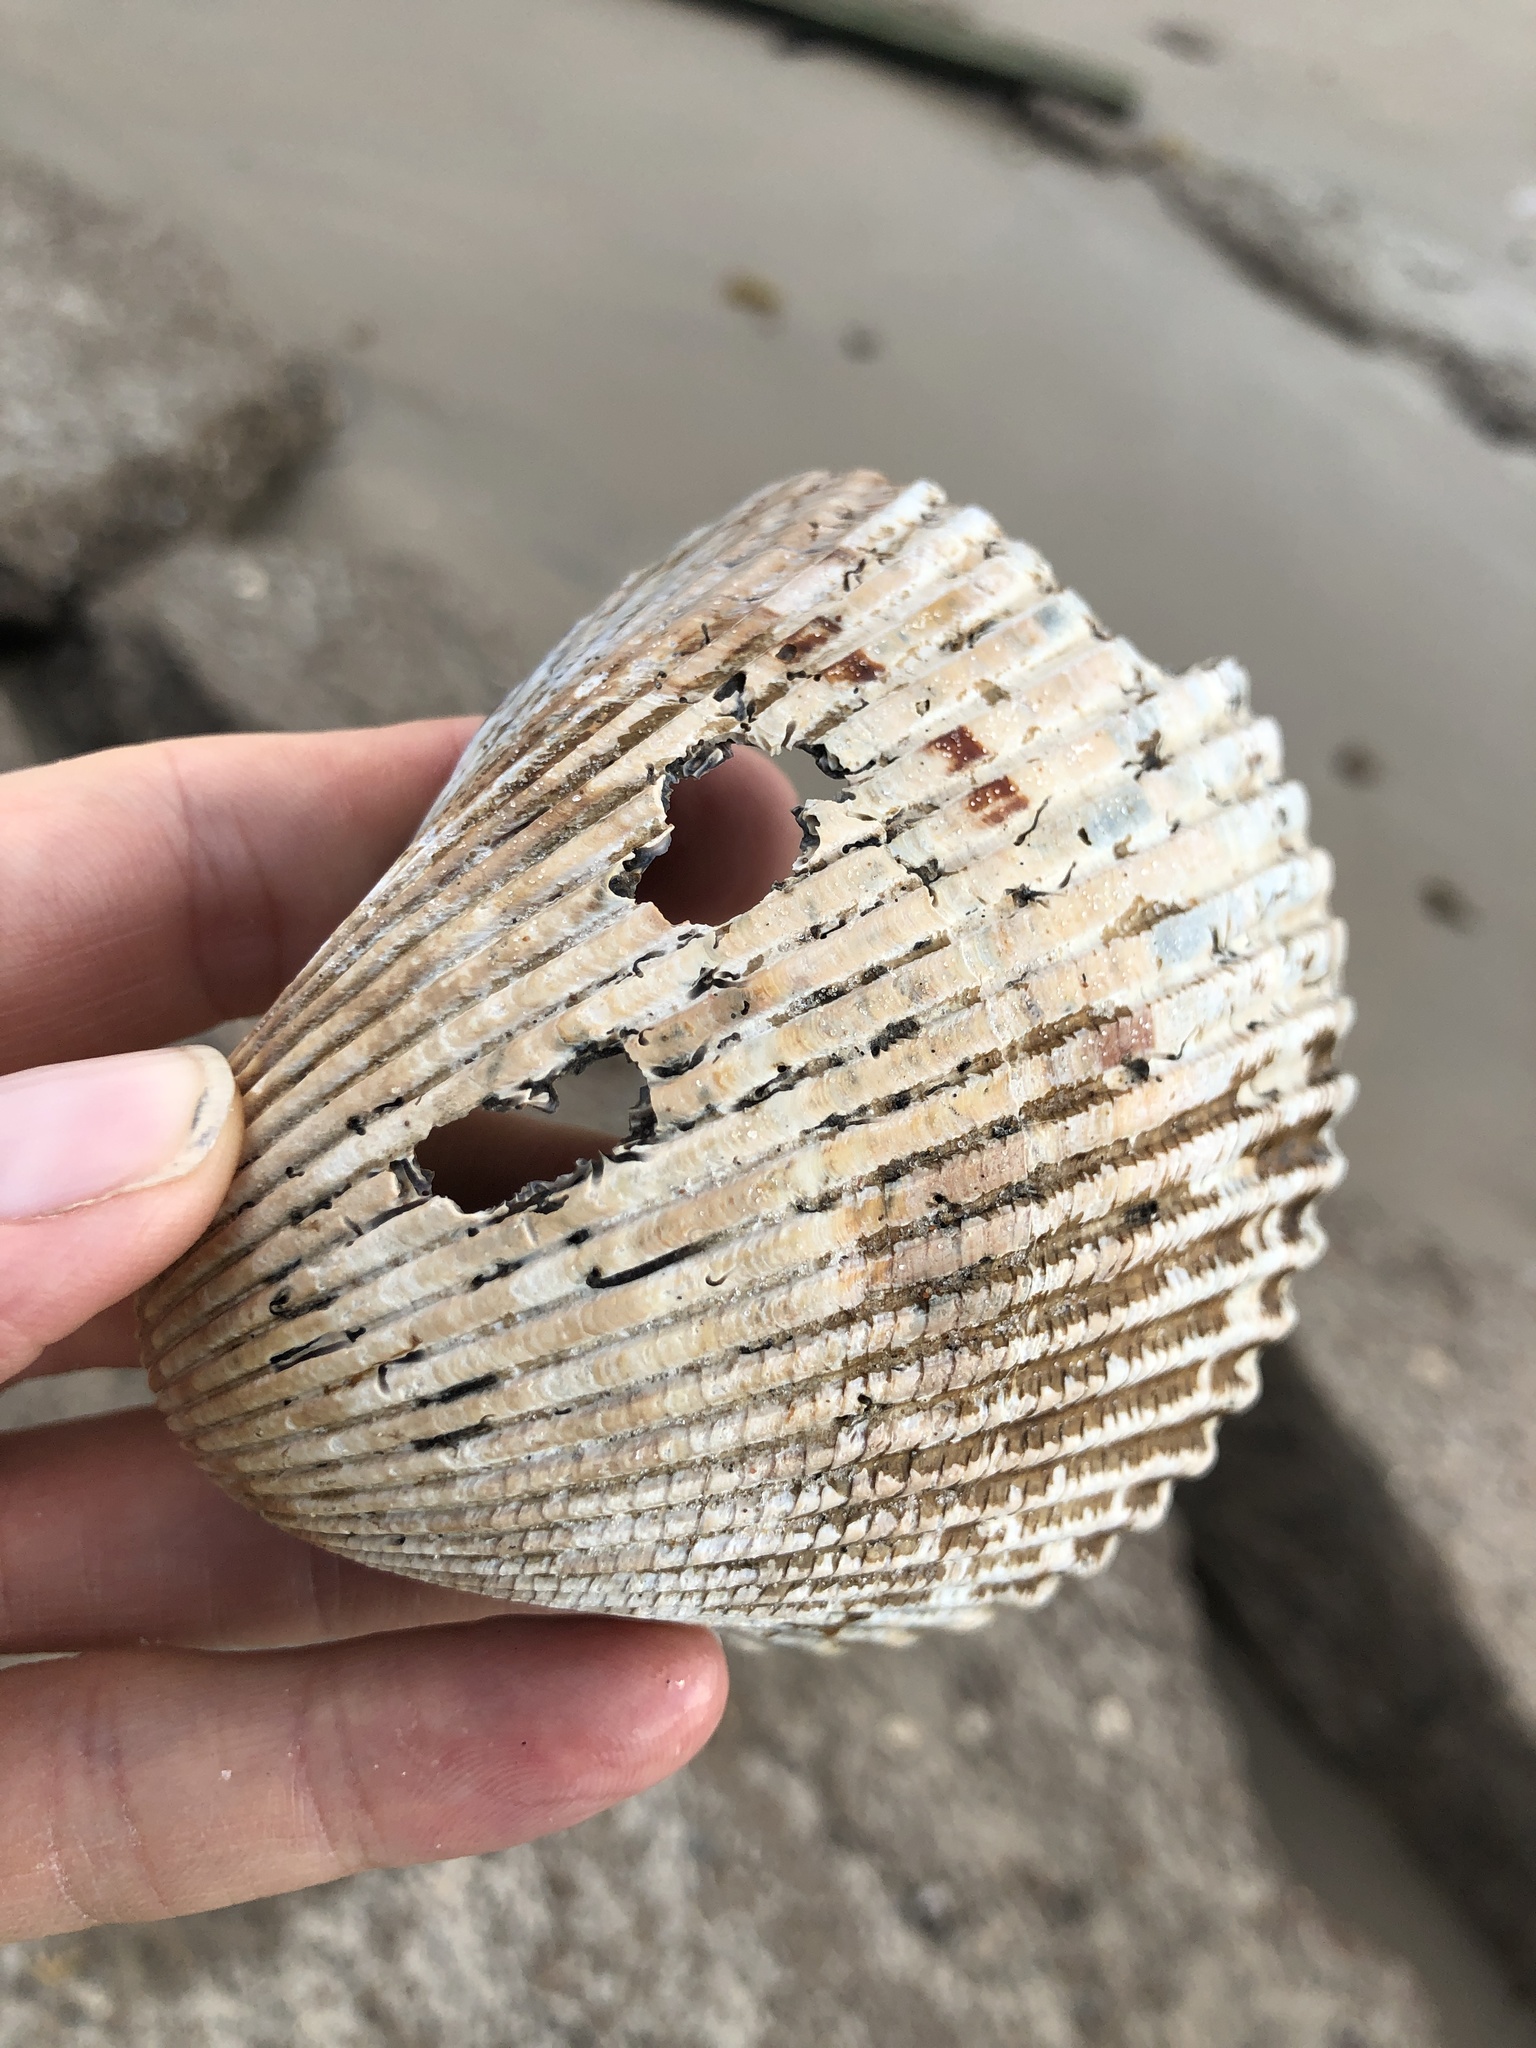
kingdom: Animalia
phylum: Mollusca
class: Bivalvia
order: Cardiida
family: Cardiidae
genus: Dinocardium
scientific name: Dinocardium robustum
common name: Atlantic giant cockle
